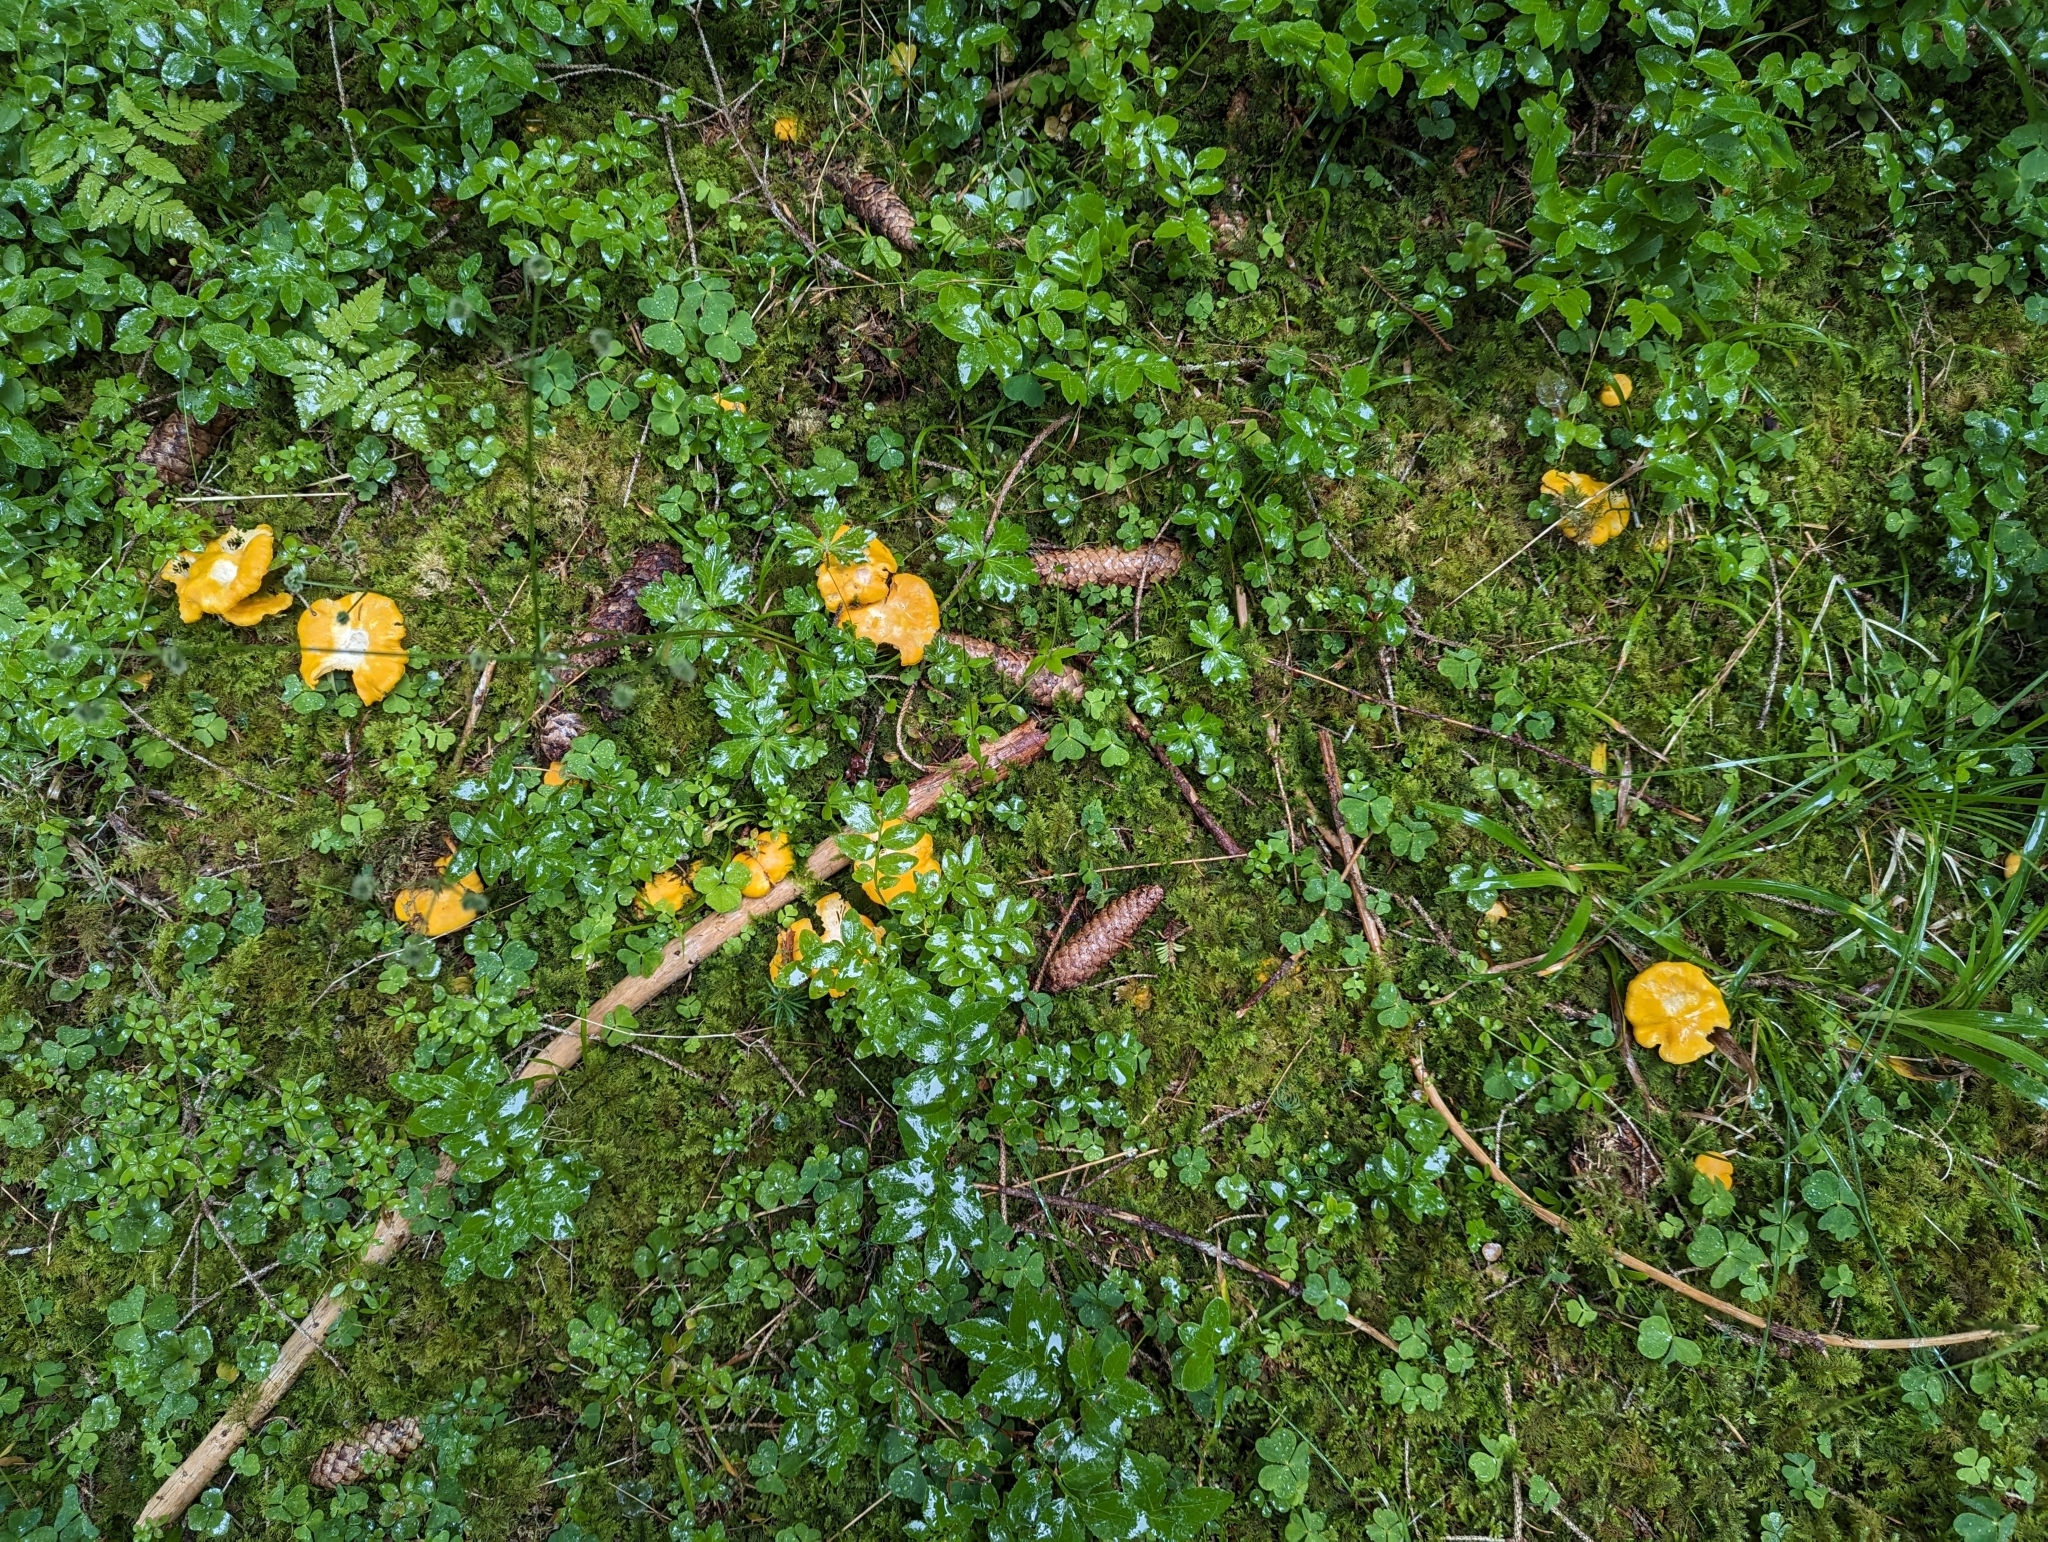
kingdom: Fungi
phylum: Basidiomycota
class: Agaricomycetes
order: Cantharellales
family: Hydnaceae
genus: Cantharellus
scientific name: Cantharellus cibarius
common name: Chanterelle
